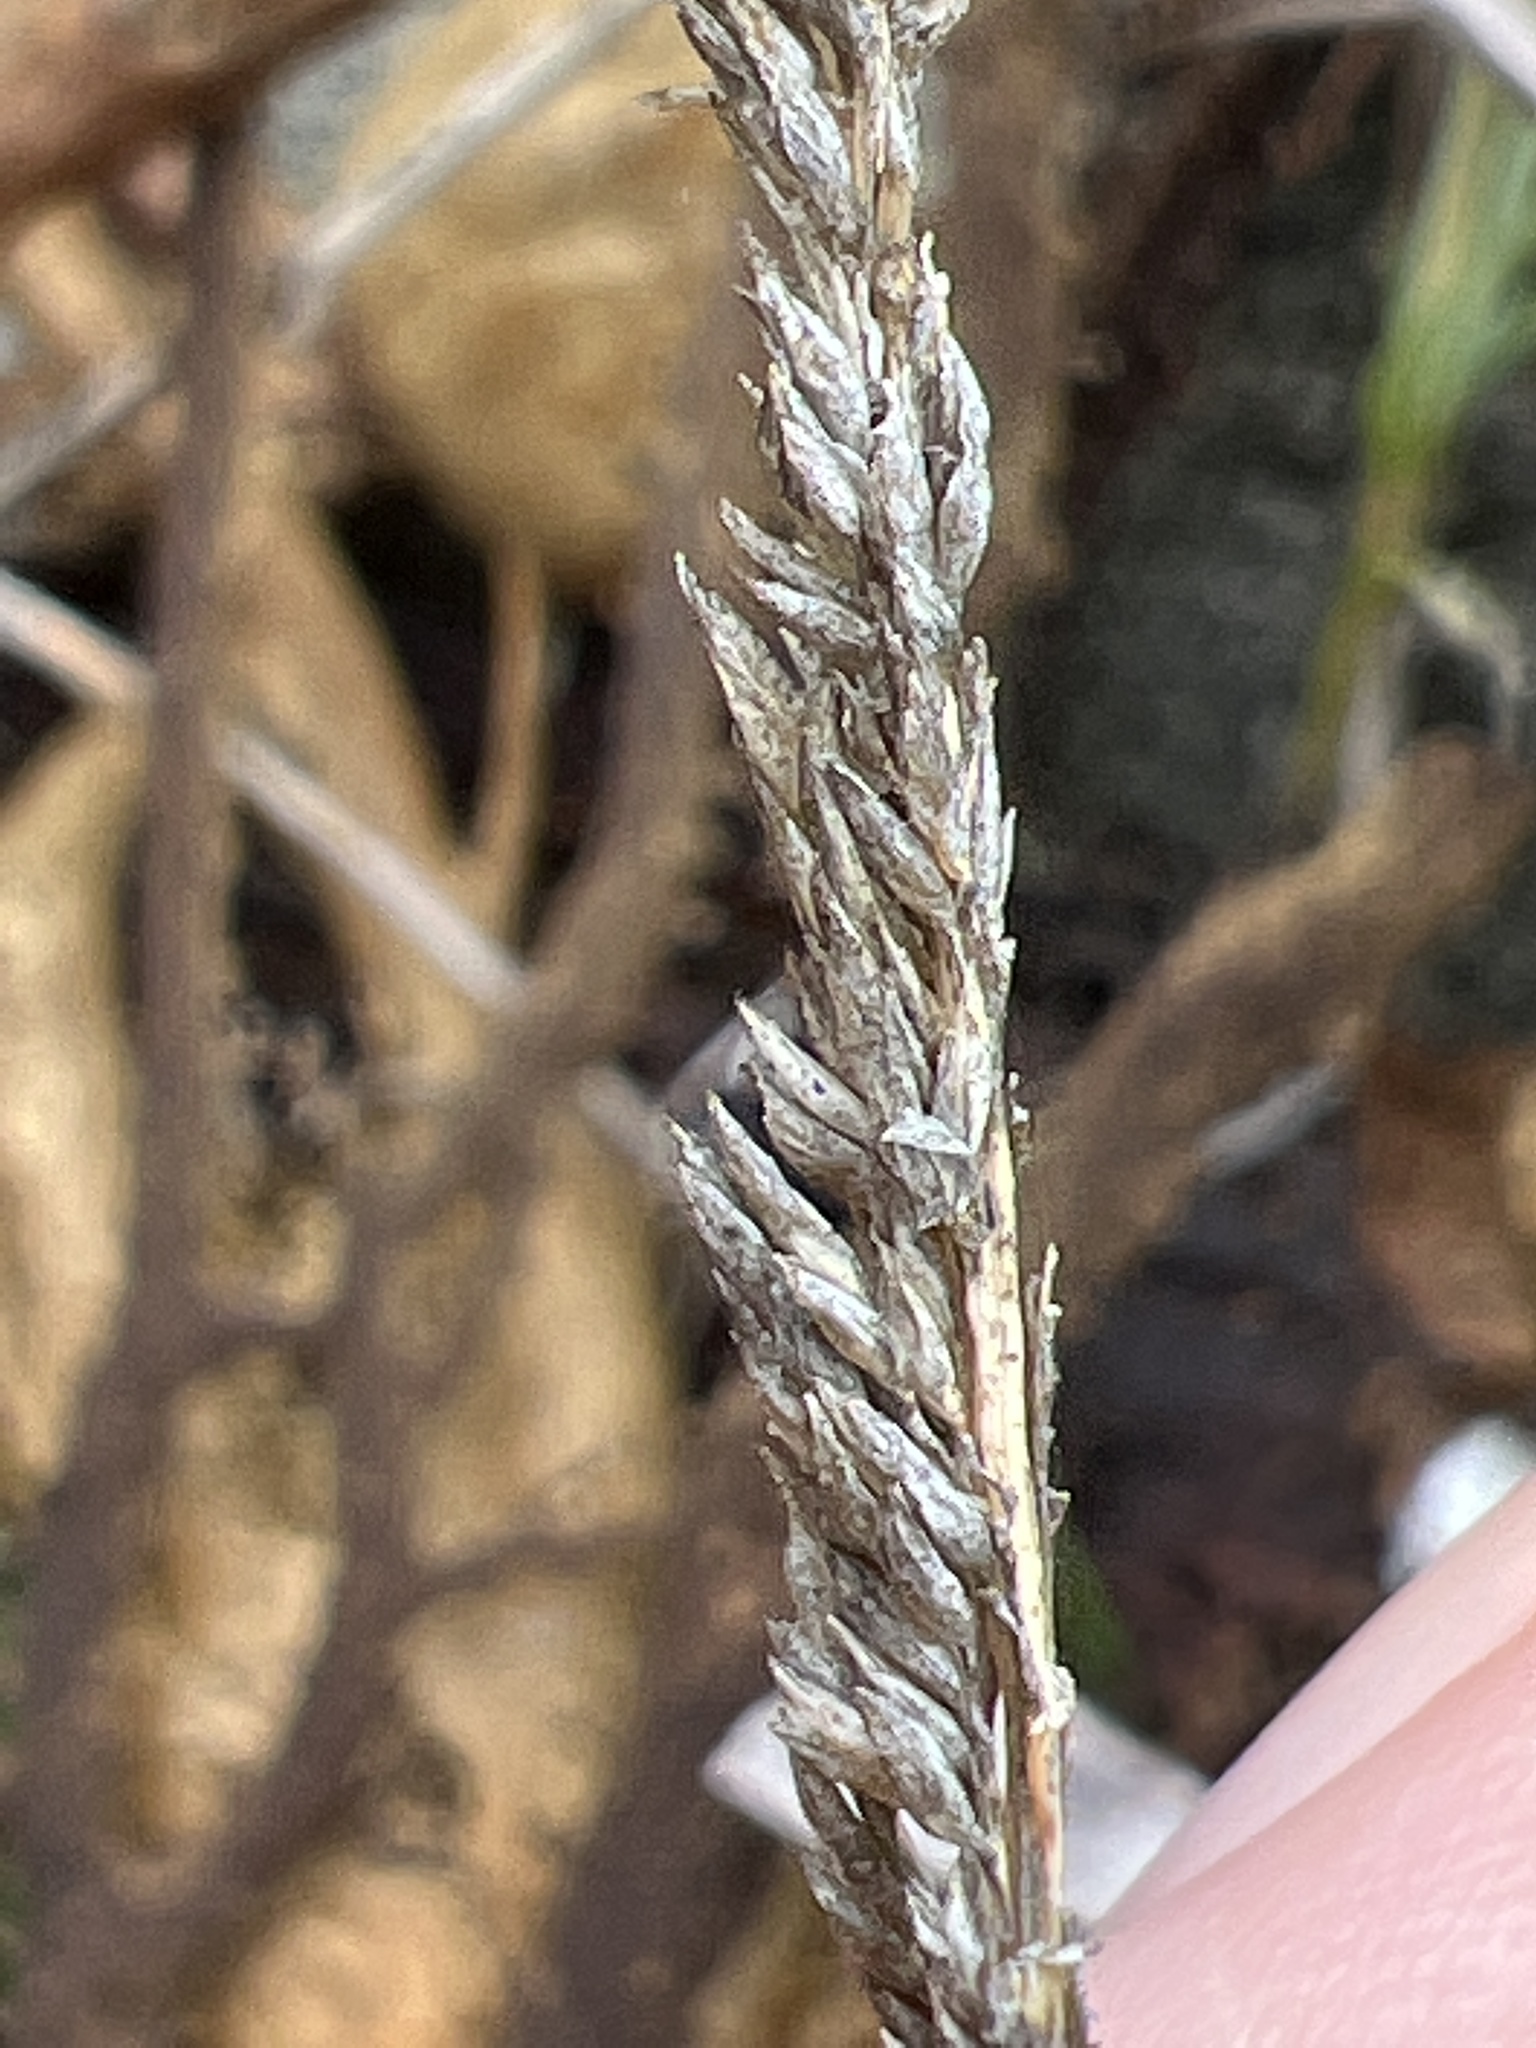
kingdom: Plantae
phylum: Tracheophyta
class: Liliopsida
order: Poales
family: Poaceae
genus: Sporobolus
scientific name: Sporobolus virginicus
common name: Beach dropseed
